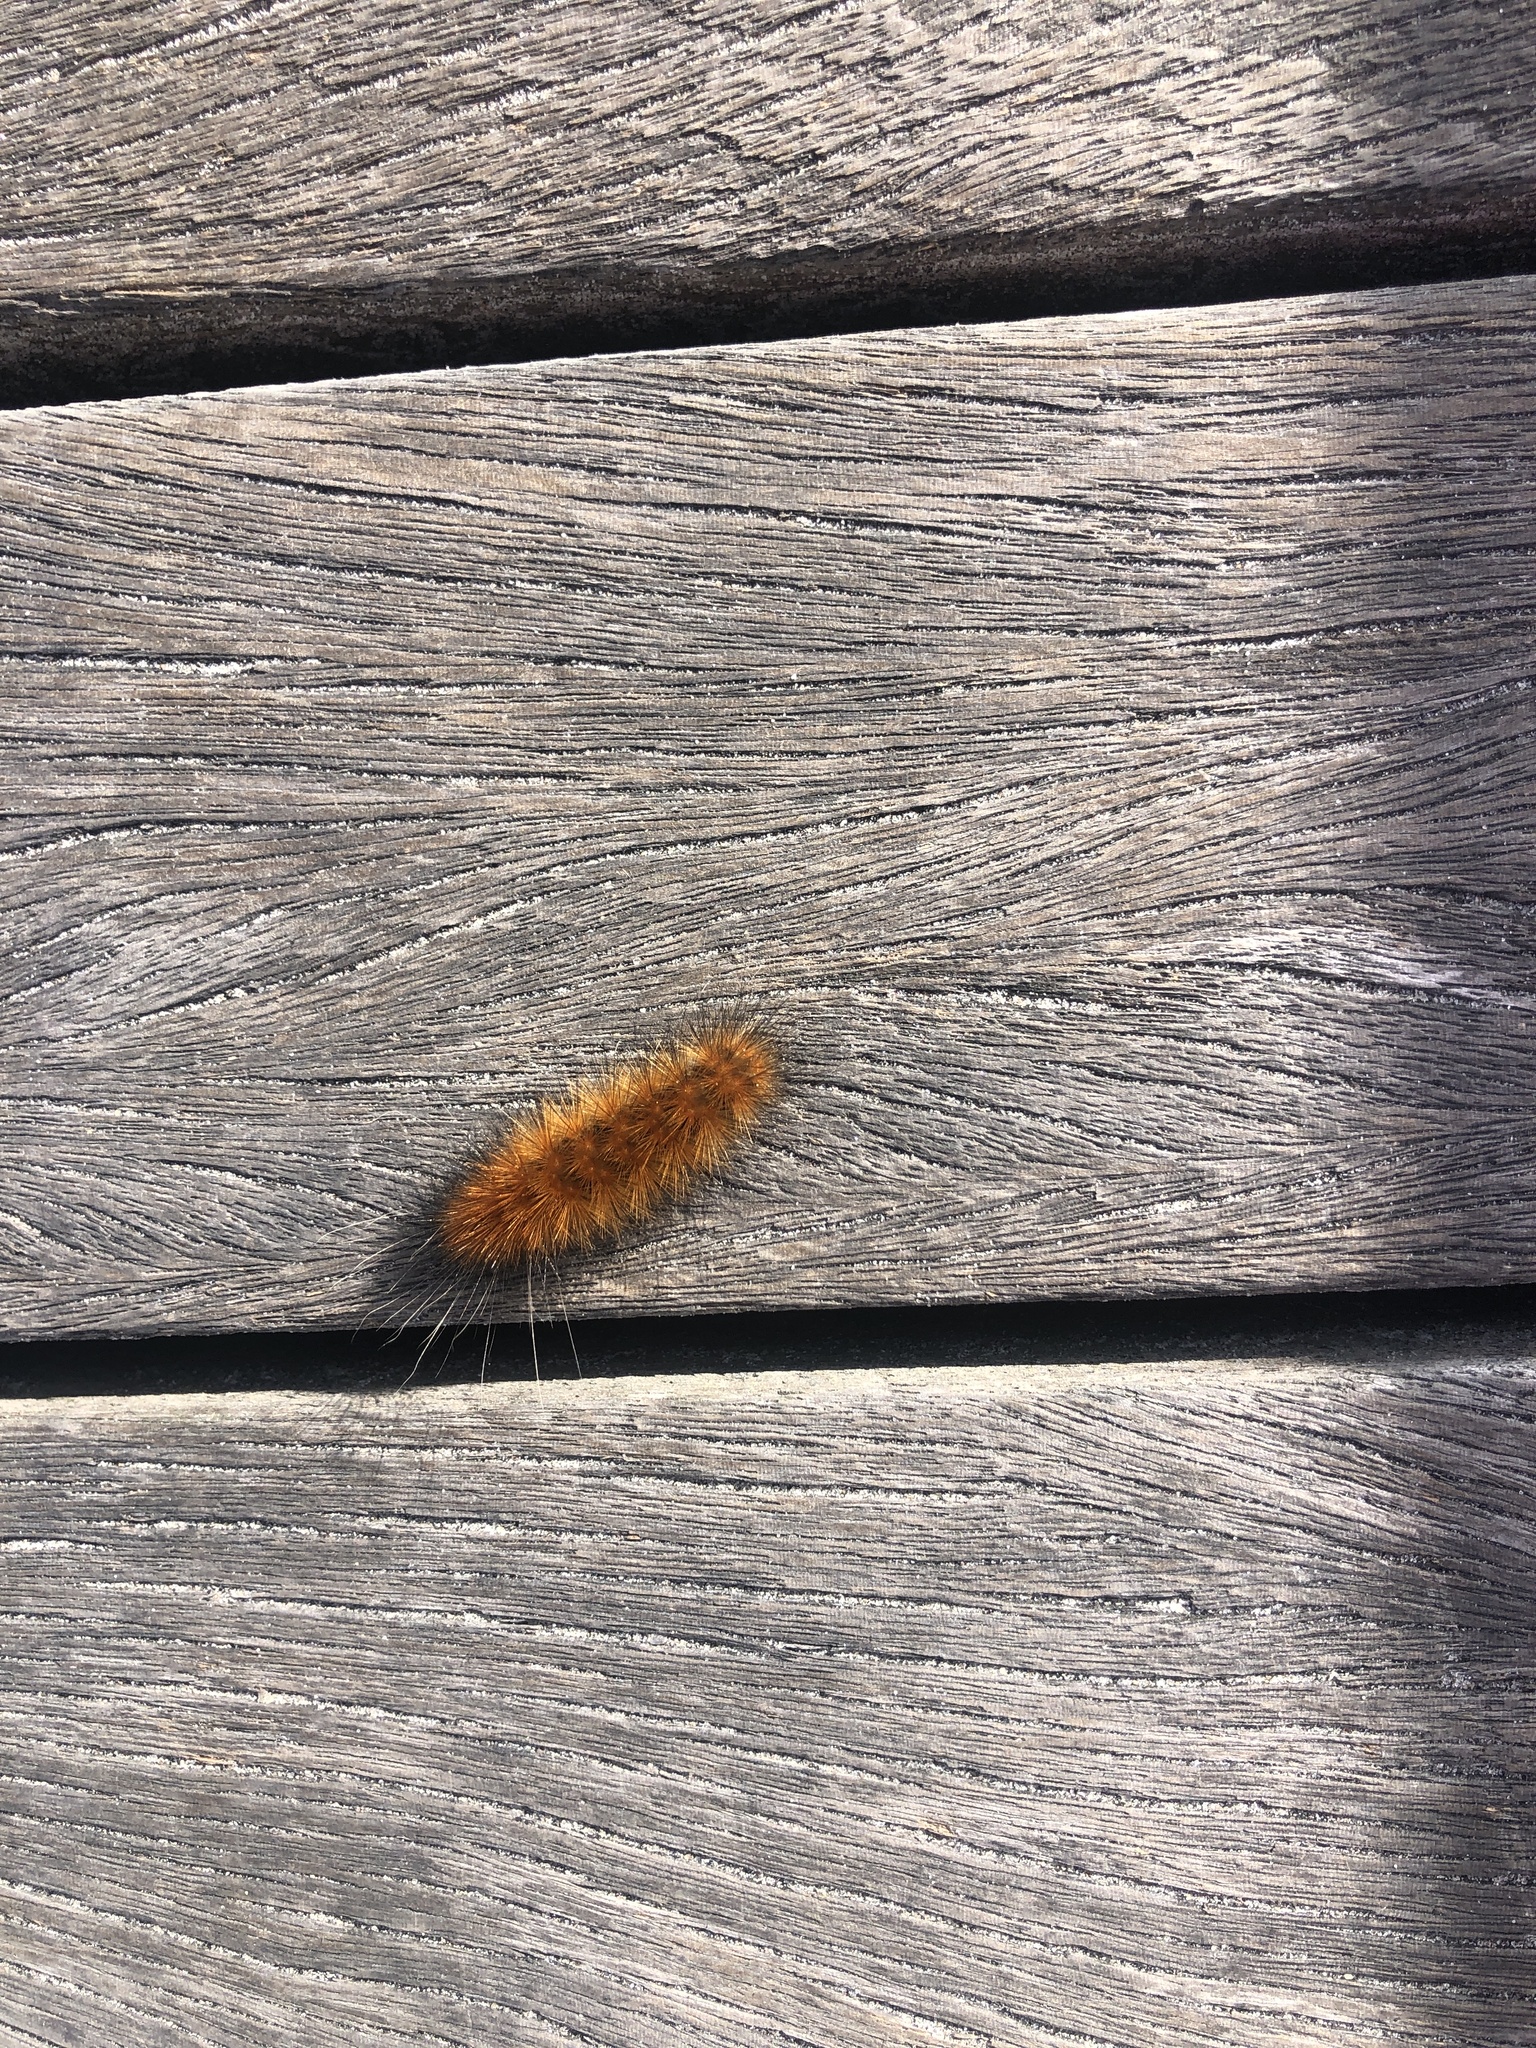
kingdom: Animalia
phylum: Arthropoda
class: Insecta
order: Lepidoptera
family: Erebidae
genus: Spilosoma
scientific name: Spilosoma virginica
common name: Virginia tiger moth
